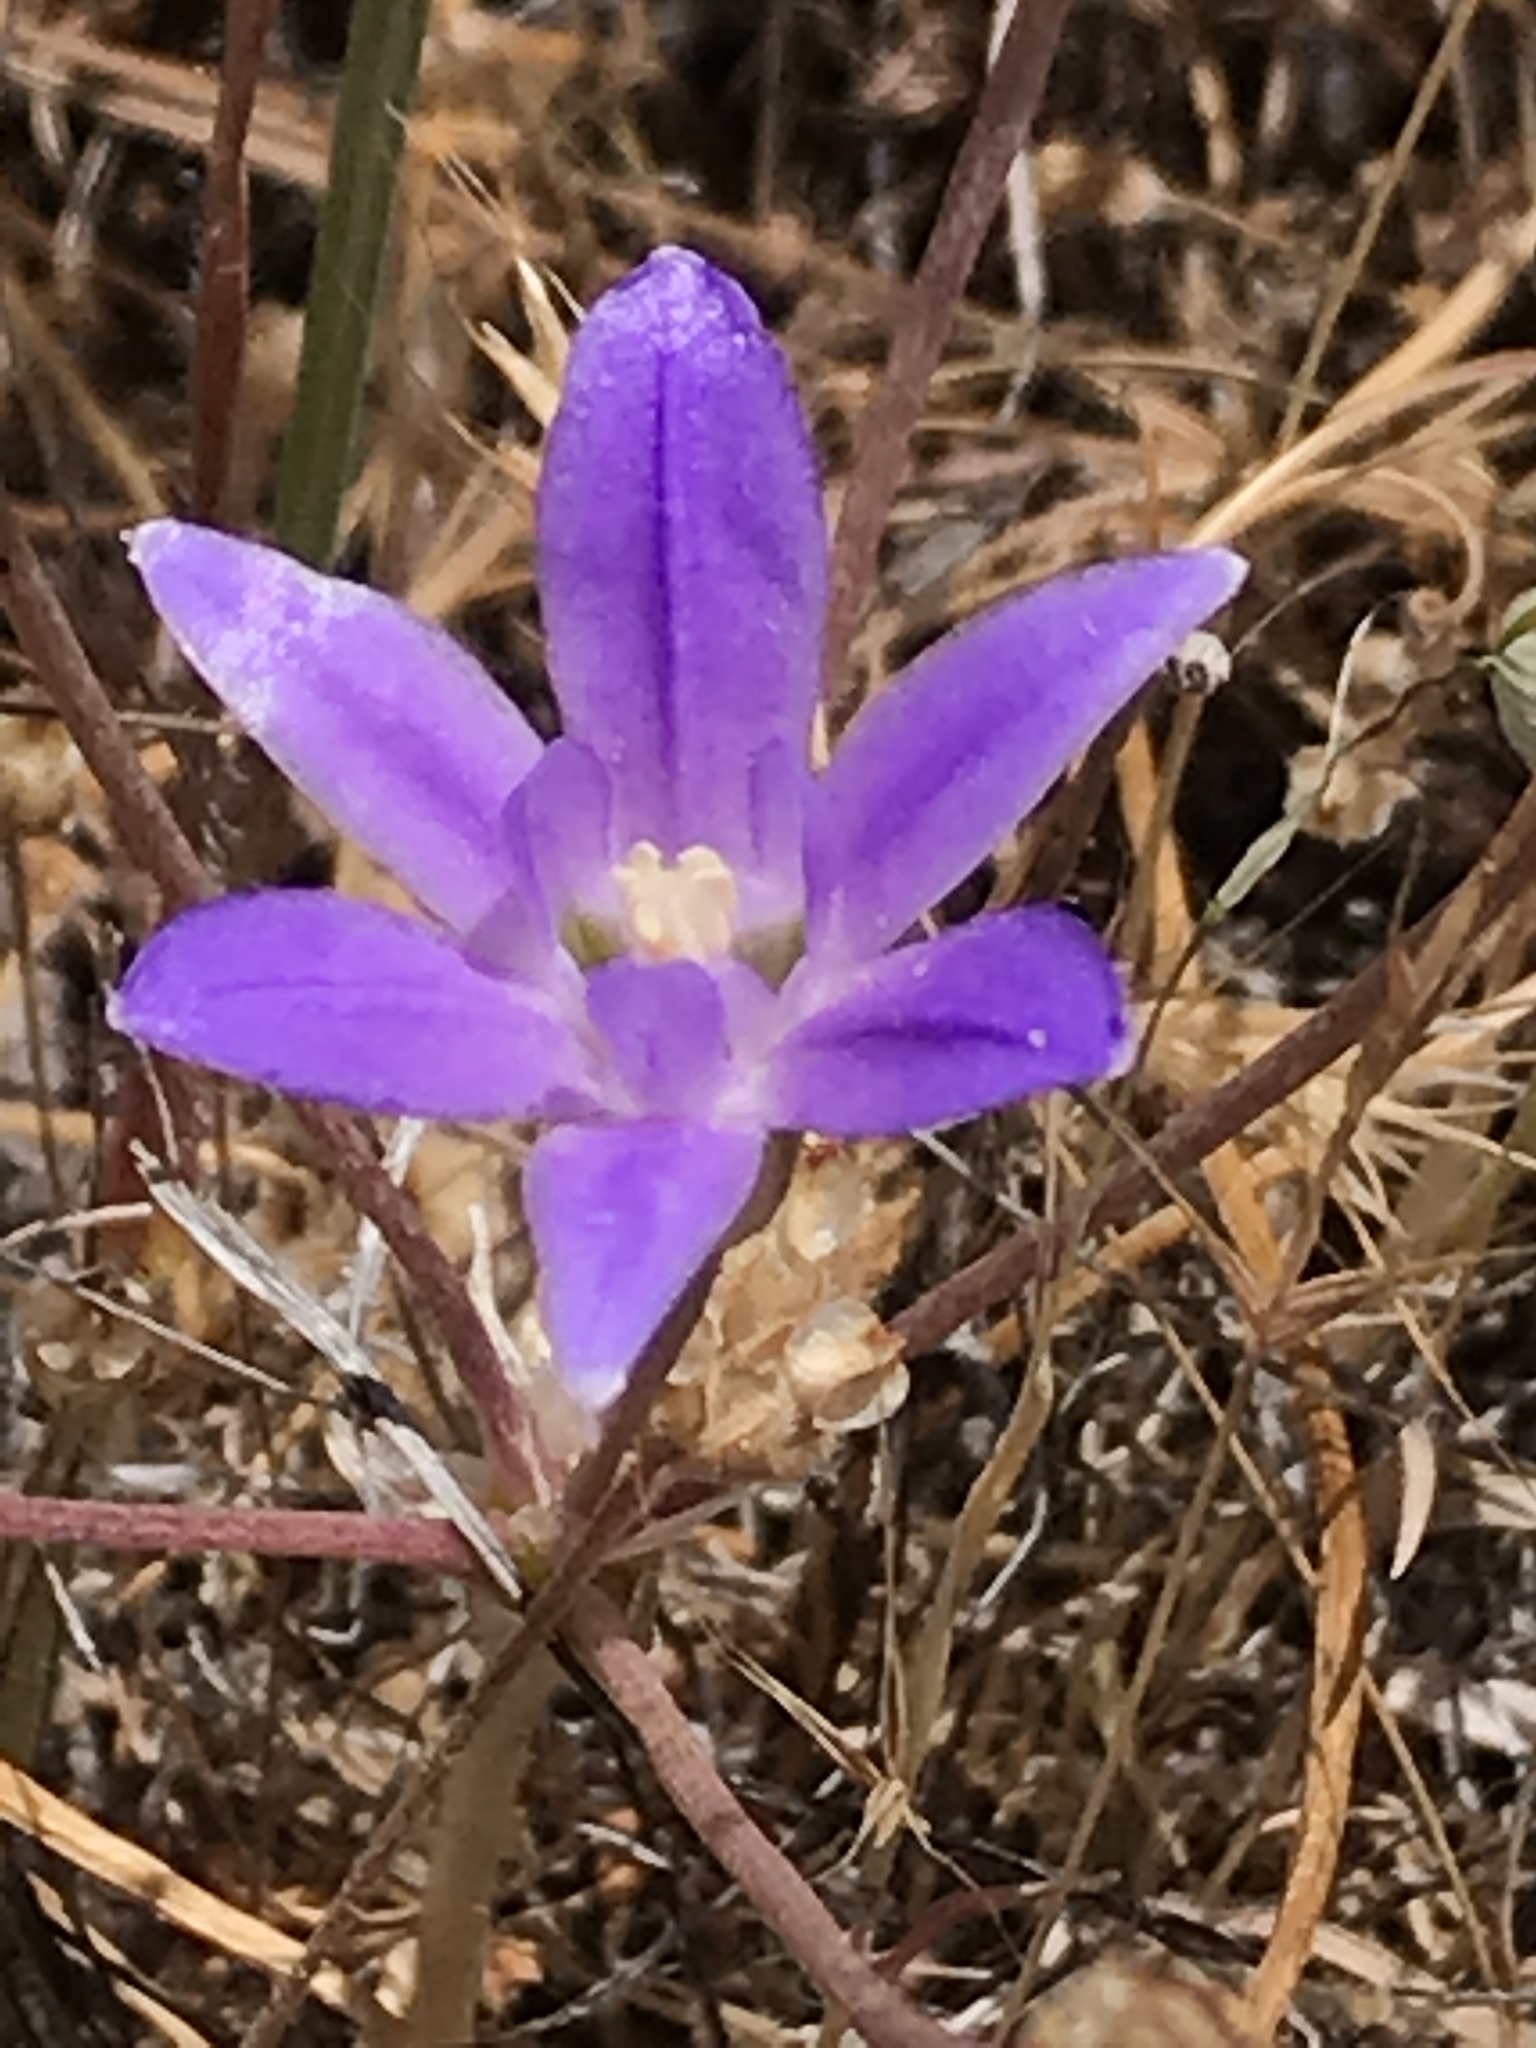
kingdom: Plantae
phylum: Tracheophyta
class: Liliopsida
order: Asparagales
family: Asparagaceae
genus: Brodiaea
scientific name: Brodiaea terrestris
